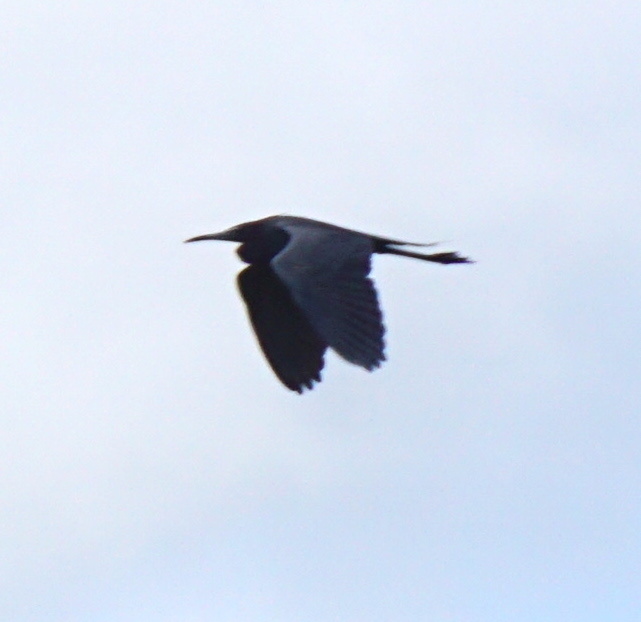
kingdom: Animalia
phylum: Chordata
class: Aves
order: Pelecaniformes
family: Ardeidae
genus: Egretta
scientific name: Egretta caerulea
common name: Little blue heron
